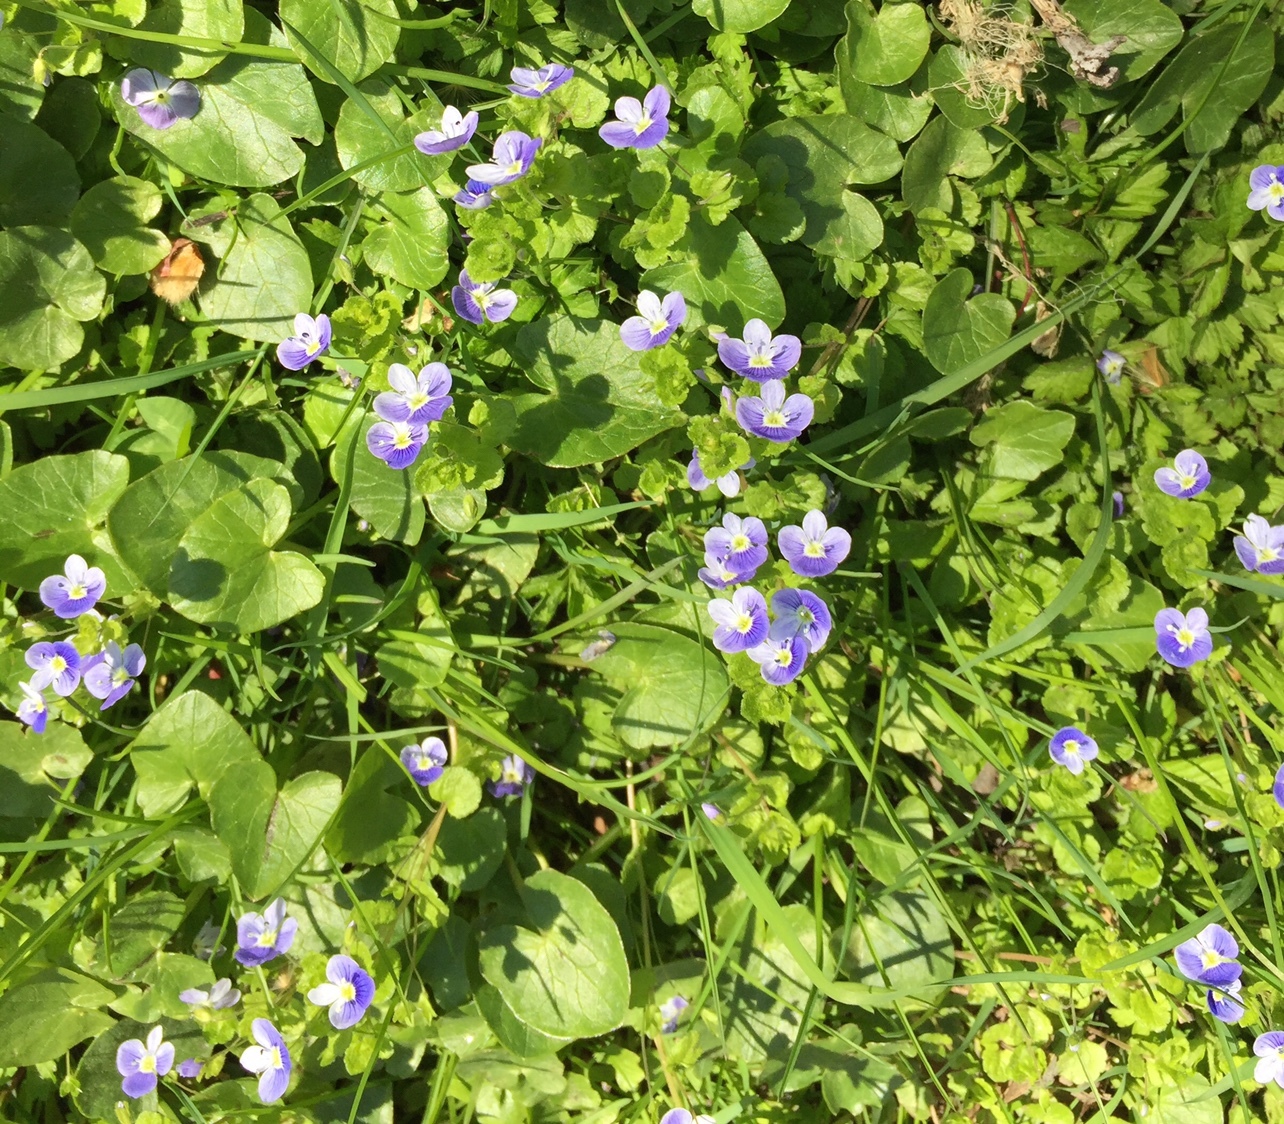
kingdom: Plantae
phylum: Tracheophyta
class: Magnoliopsida
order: Lamiales
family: Plantaginaceae
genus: Veronica
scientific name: Veronica filiformis
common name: Slender speedwell
